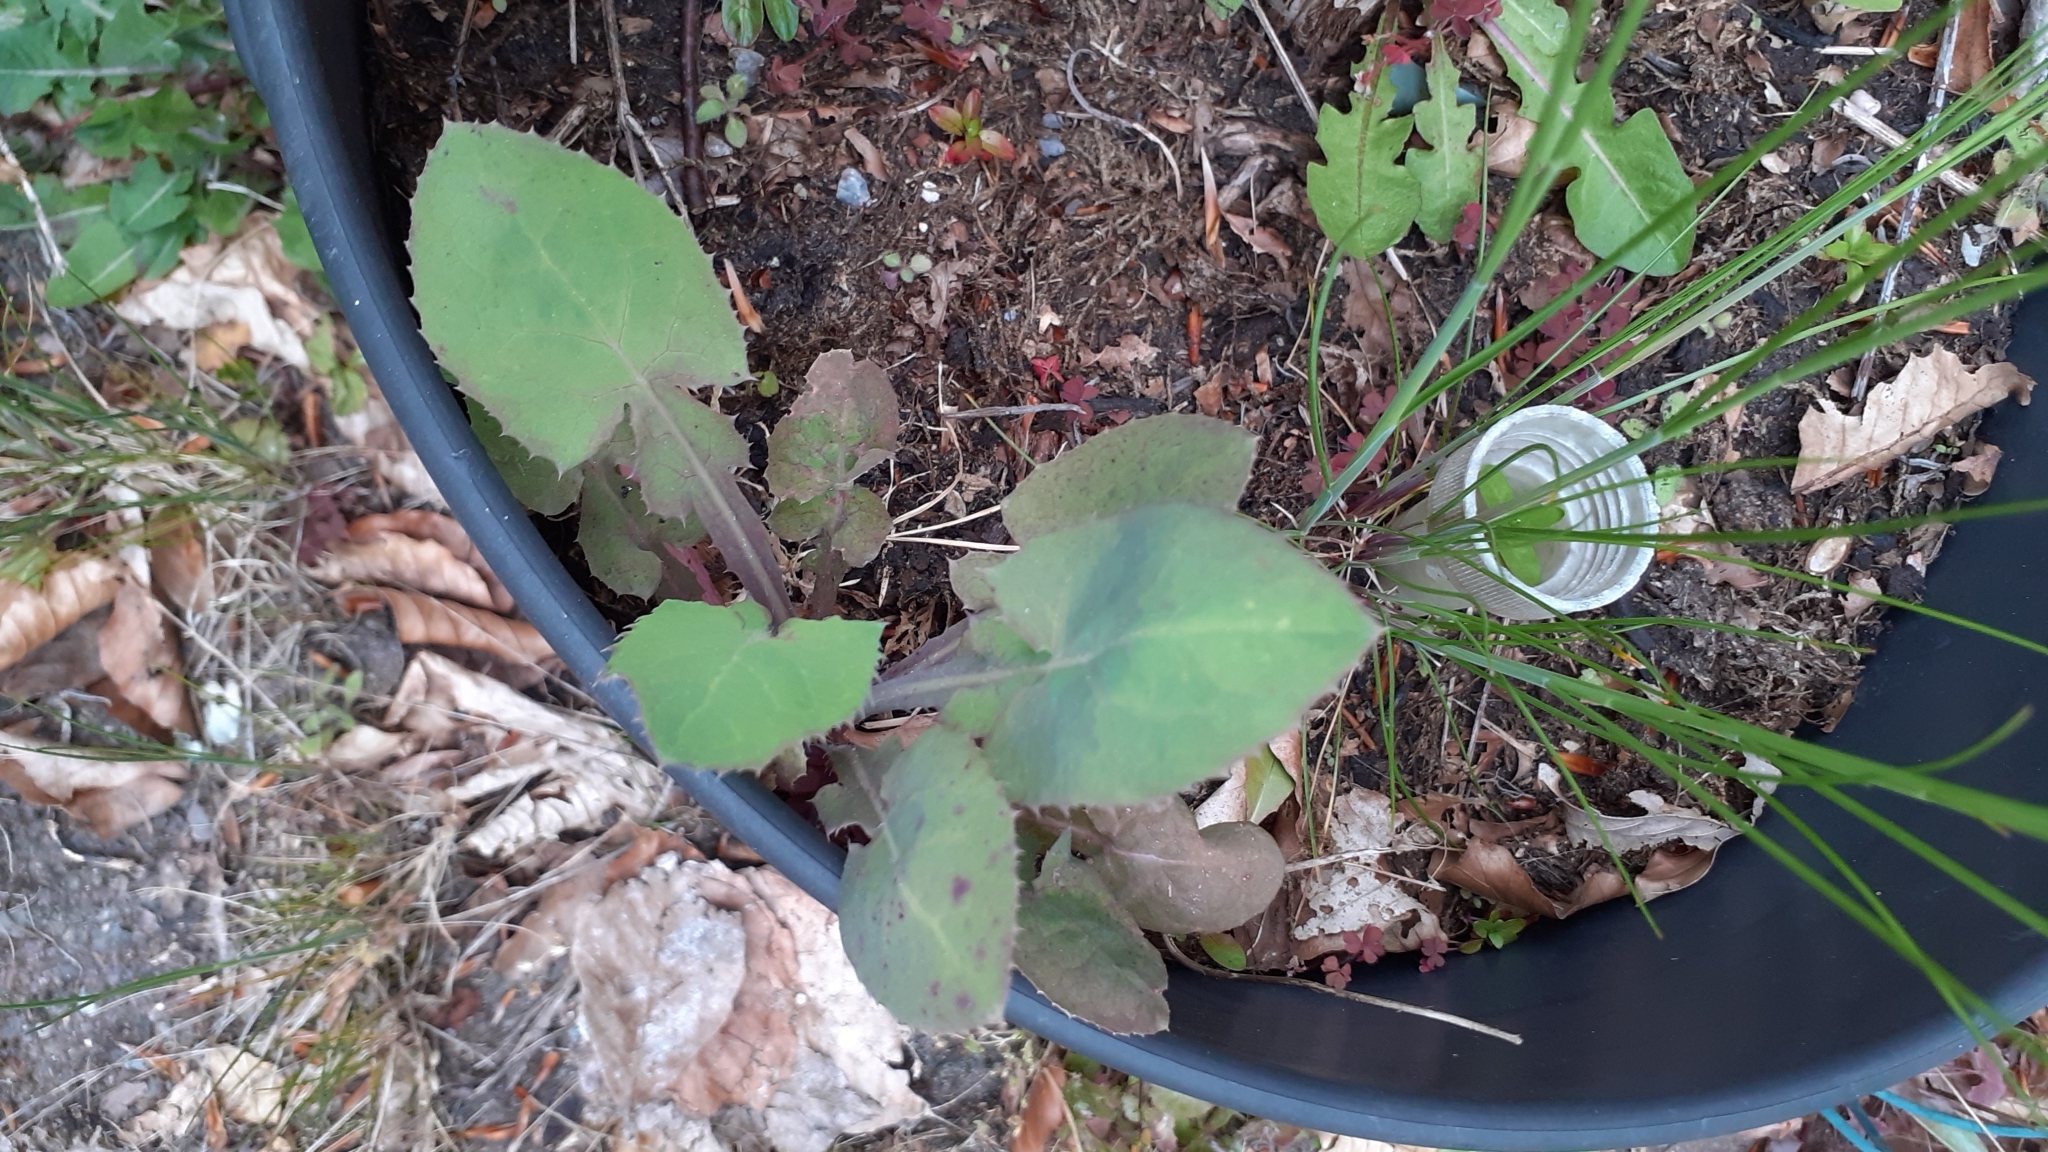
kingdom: Plantae
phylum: Tracheophyta
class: Magnoliopsida
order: Asterales
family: Asteraceae
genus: Sonchus
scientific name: Sonchus oleraceus
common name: Common sowthistle
